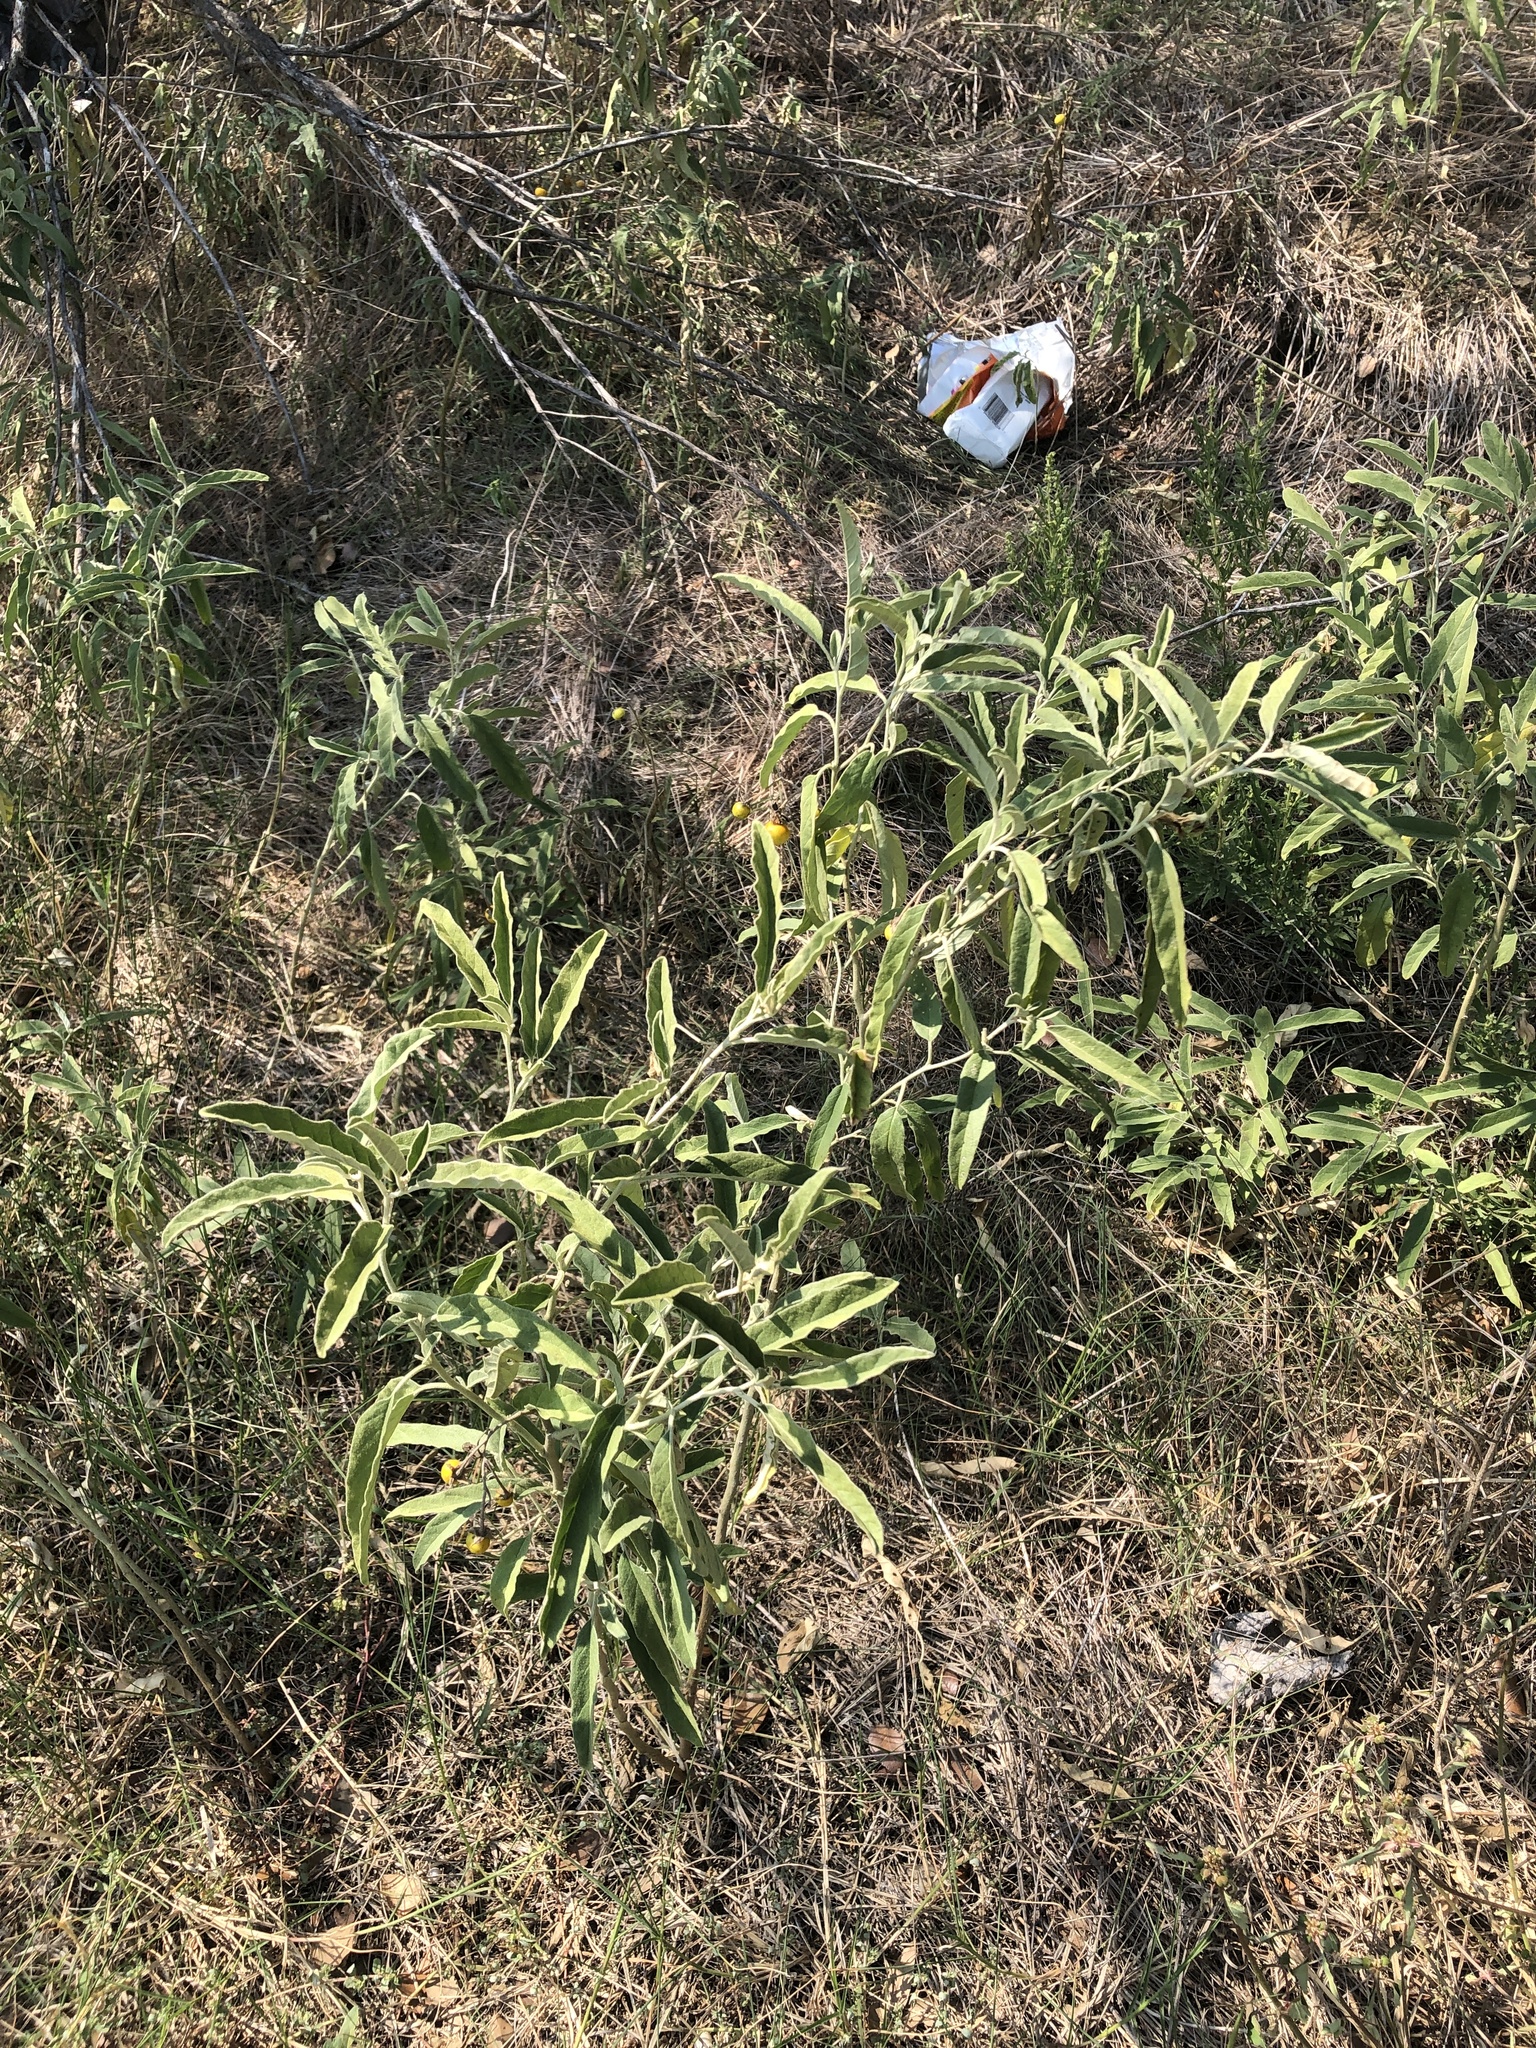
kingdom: Plantae
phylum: Tracheophyta
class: Magnoliopsida
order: Solanales
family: Solanaceae
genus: Solanum
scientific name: Solanum elaeagnifolium
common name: Silverleaf nightshade
